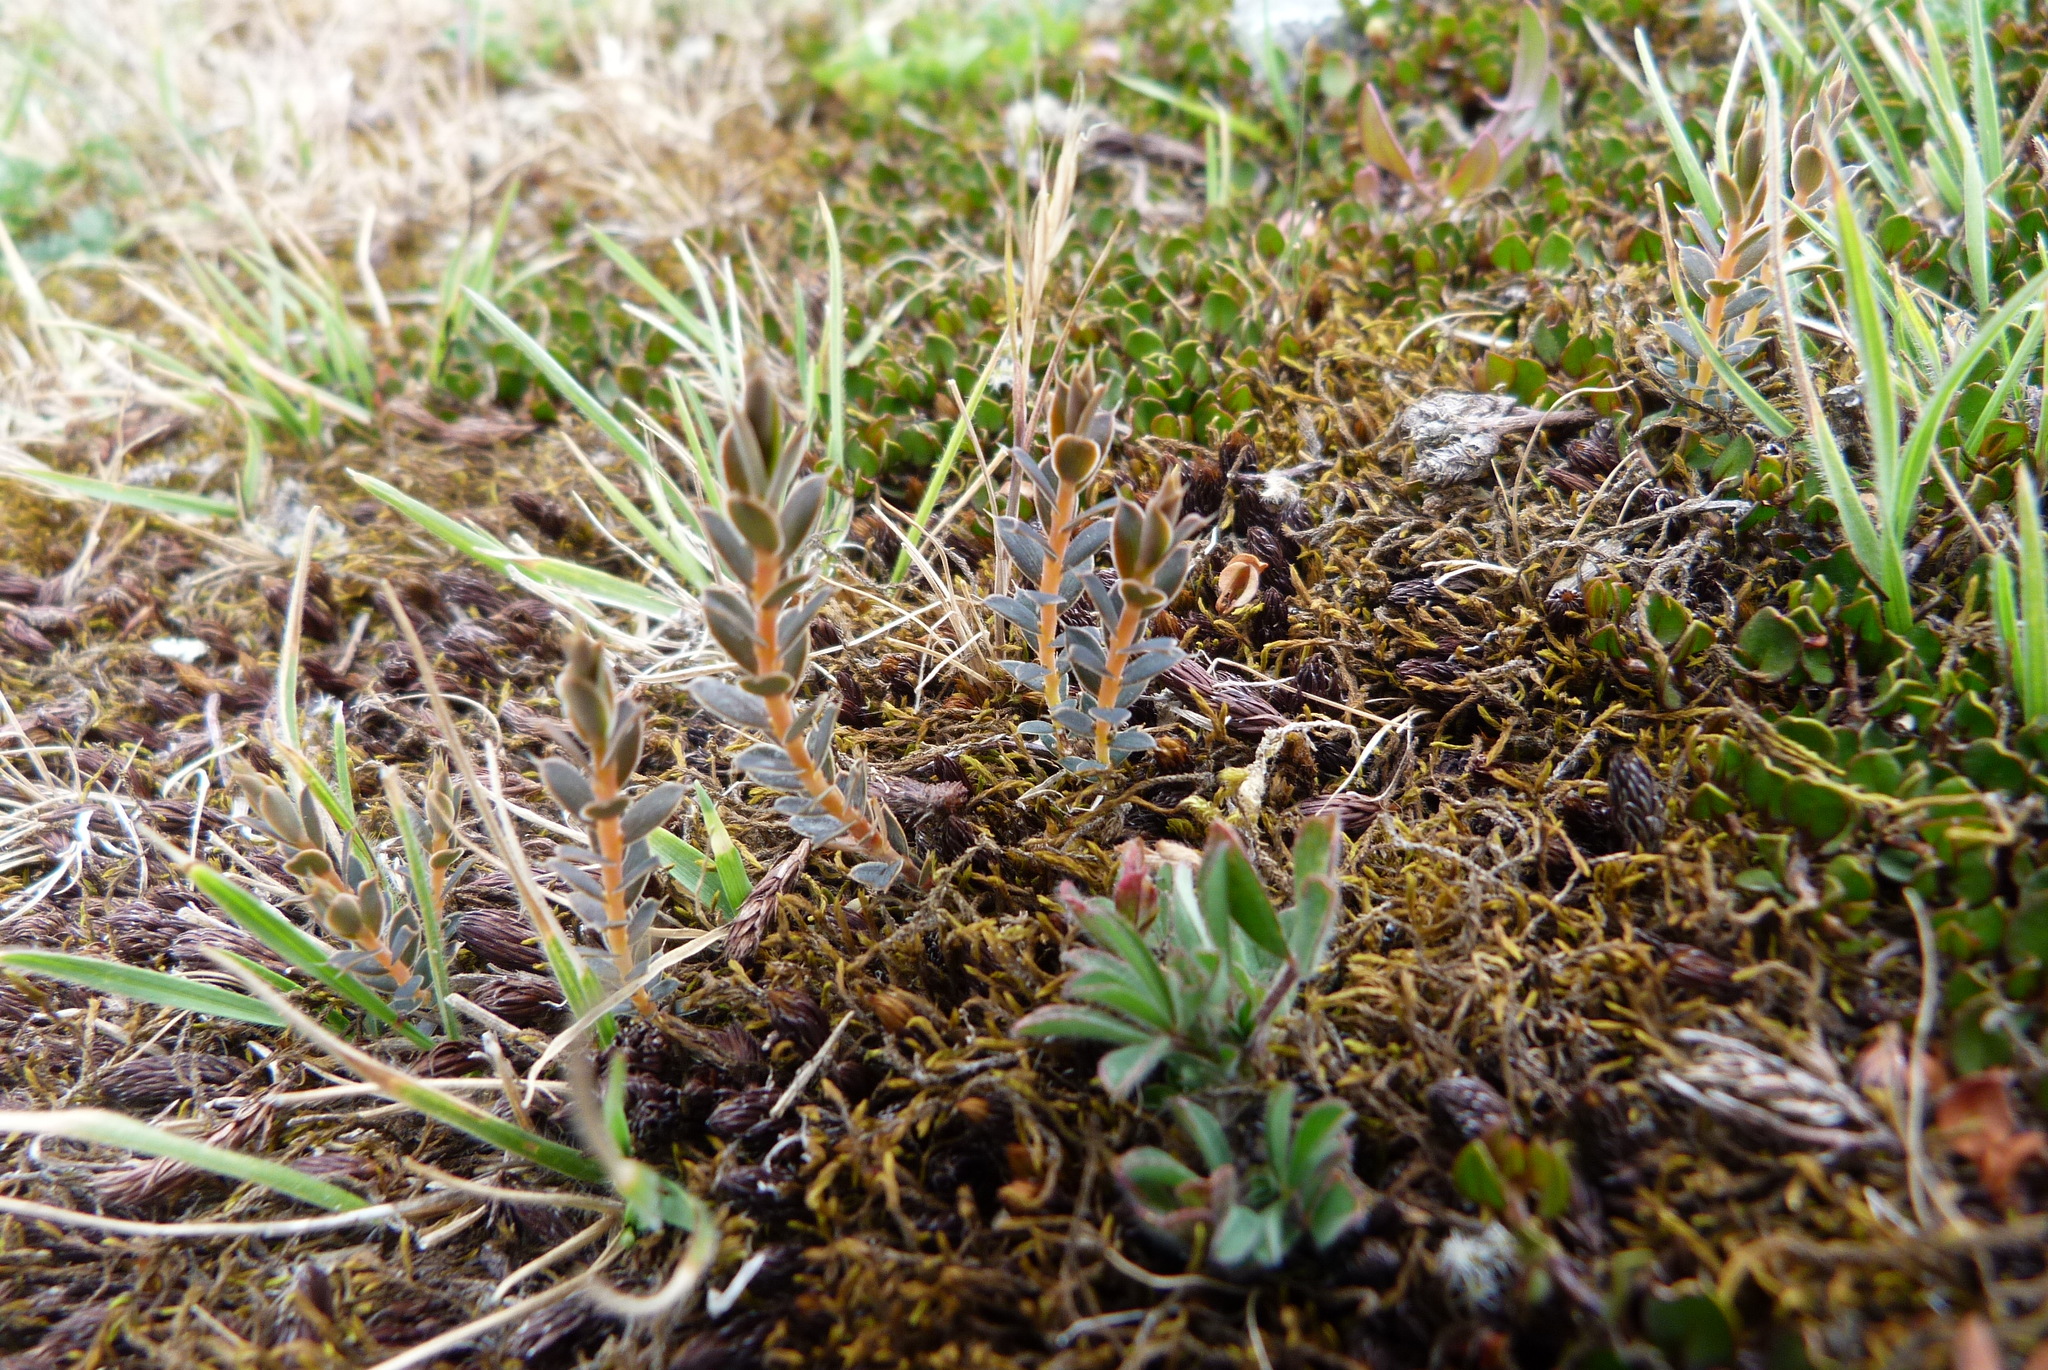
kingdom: Plantae
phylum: Tracheophyta
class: Magnoliopsida
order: Ericales
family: Ericaceae
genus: Styphelia
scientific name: Styphelia nesophila
